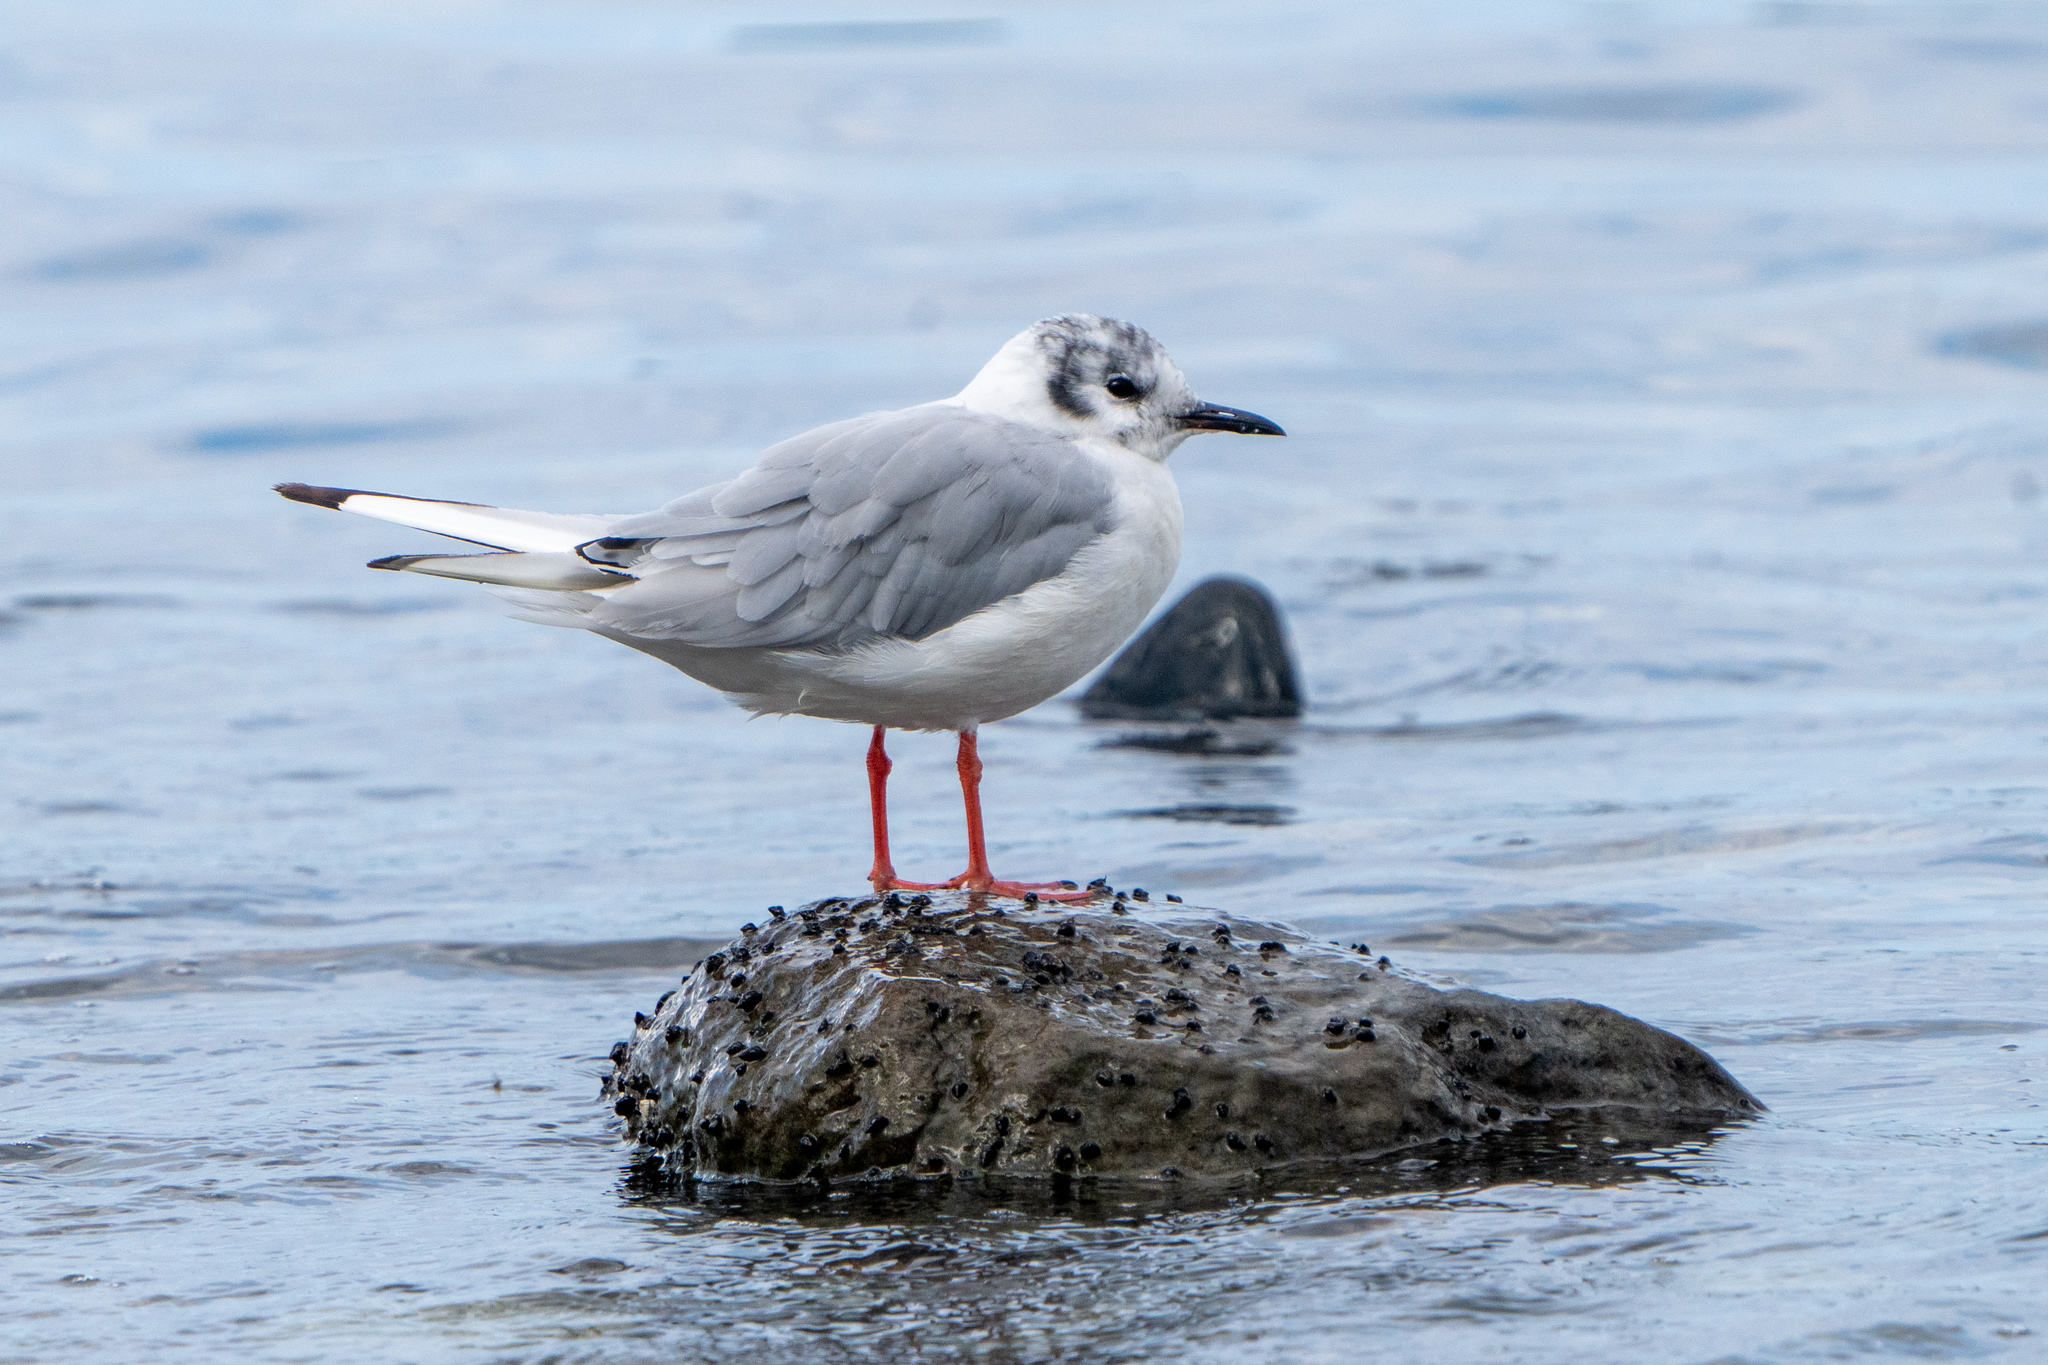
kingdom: Animalia
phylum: Chordata
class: Aves
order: Charadriiformes
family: Laridae
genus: Chroicocephalus
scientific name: Chroicocephalus philadelphia
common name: Bonaparte's gull
